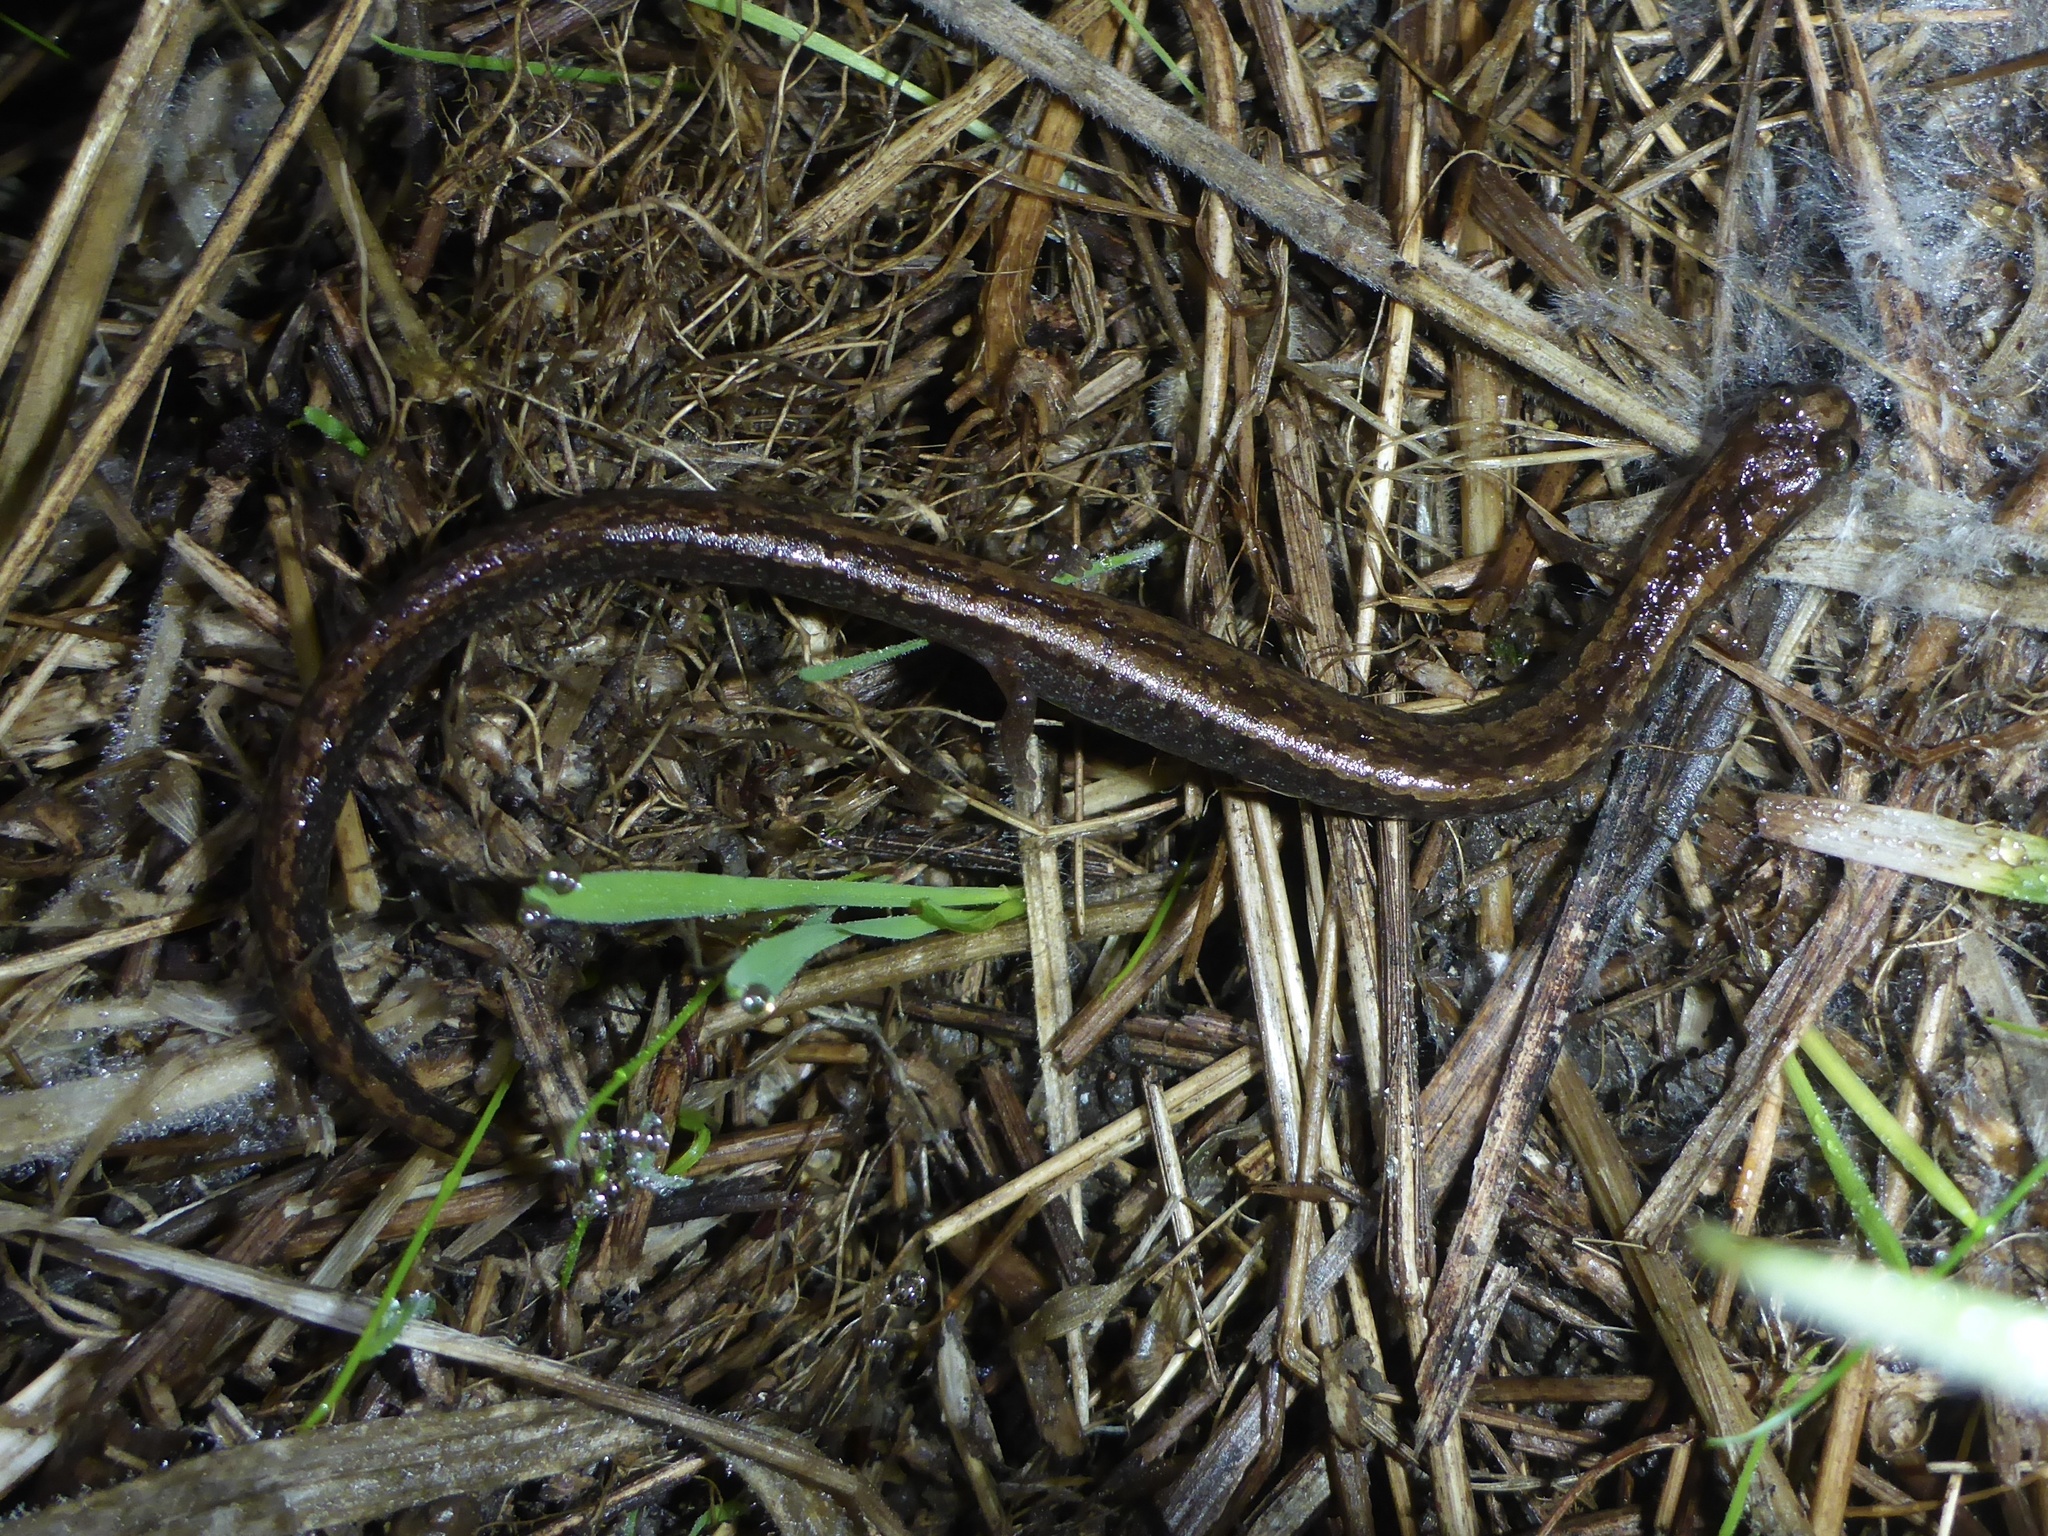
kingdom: Animalia
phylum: Chordata
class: Amphibia
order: Caudata
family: Plethodontidae
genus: Batrachoseps
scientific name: Batrachoseps attenuatus
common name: California slender salamander
